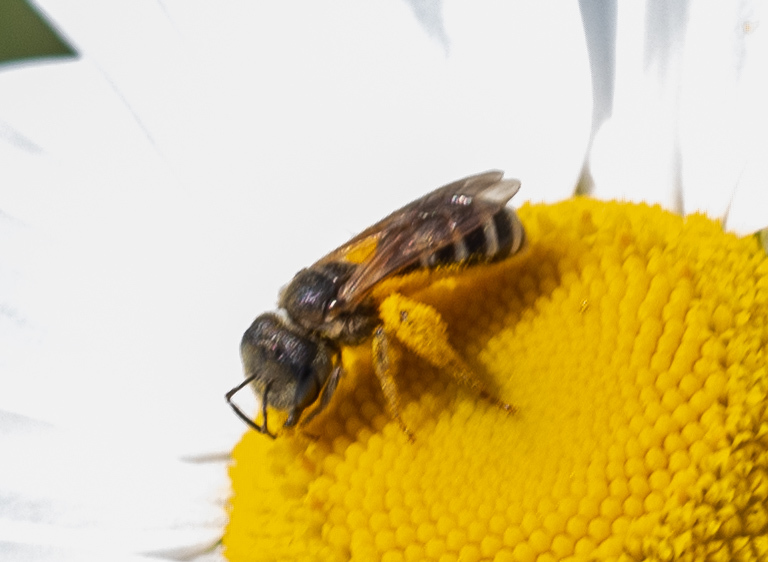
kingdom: Animalia
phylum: Arthropoda
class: Insecta
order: Hymenoptera
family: Halictidae
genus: Halictus
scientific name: Halictus ligatus
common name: Ligated furrow bee
